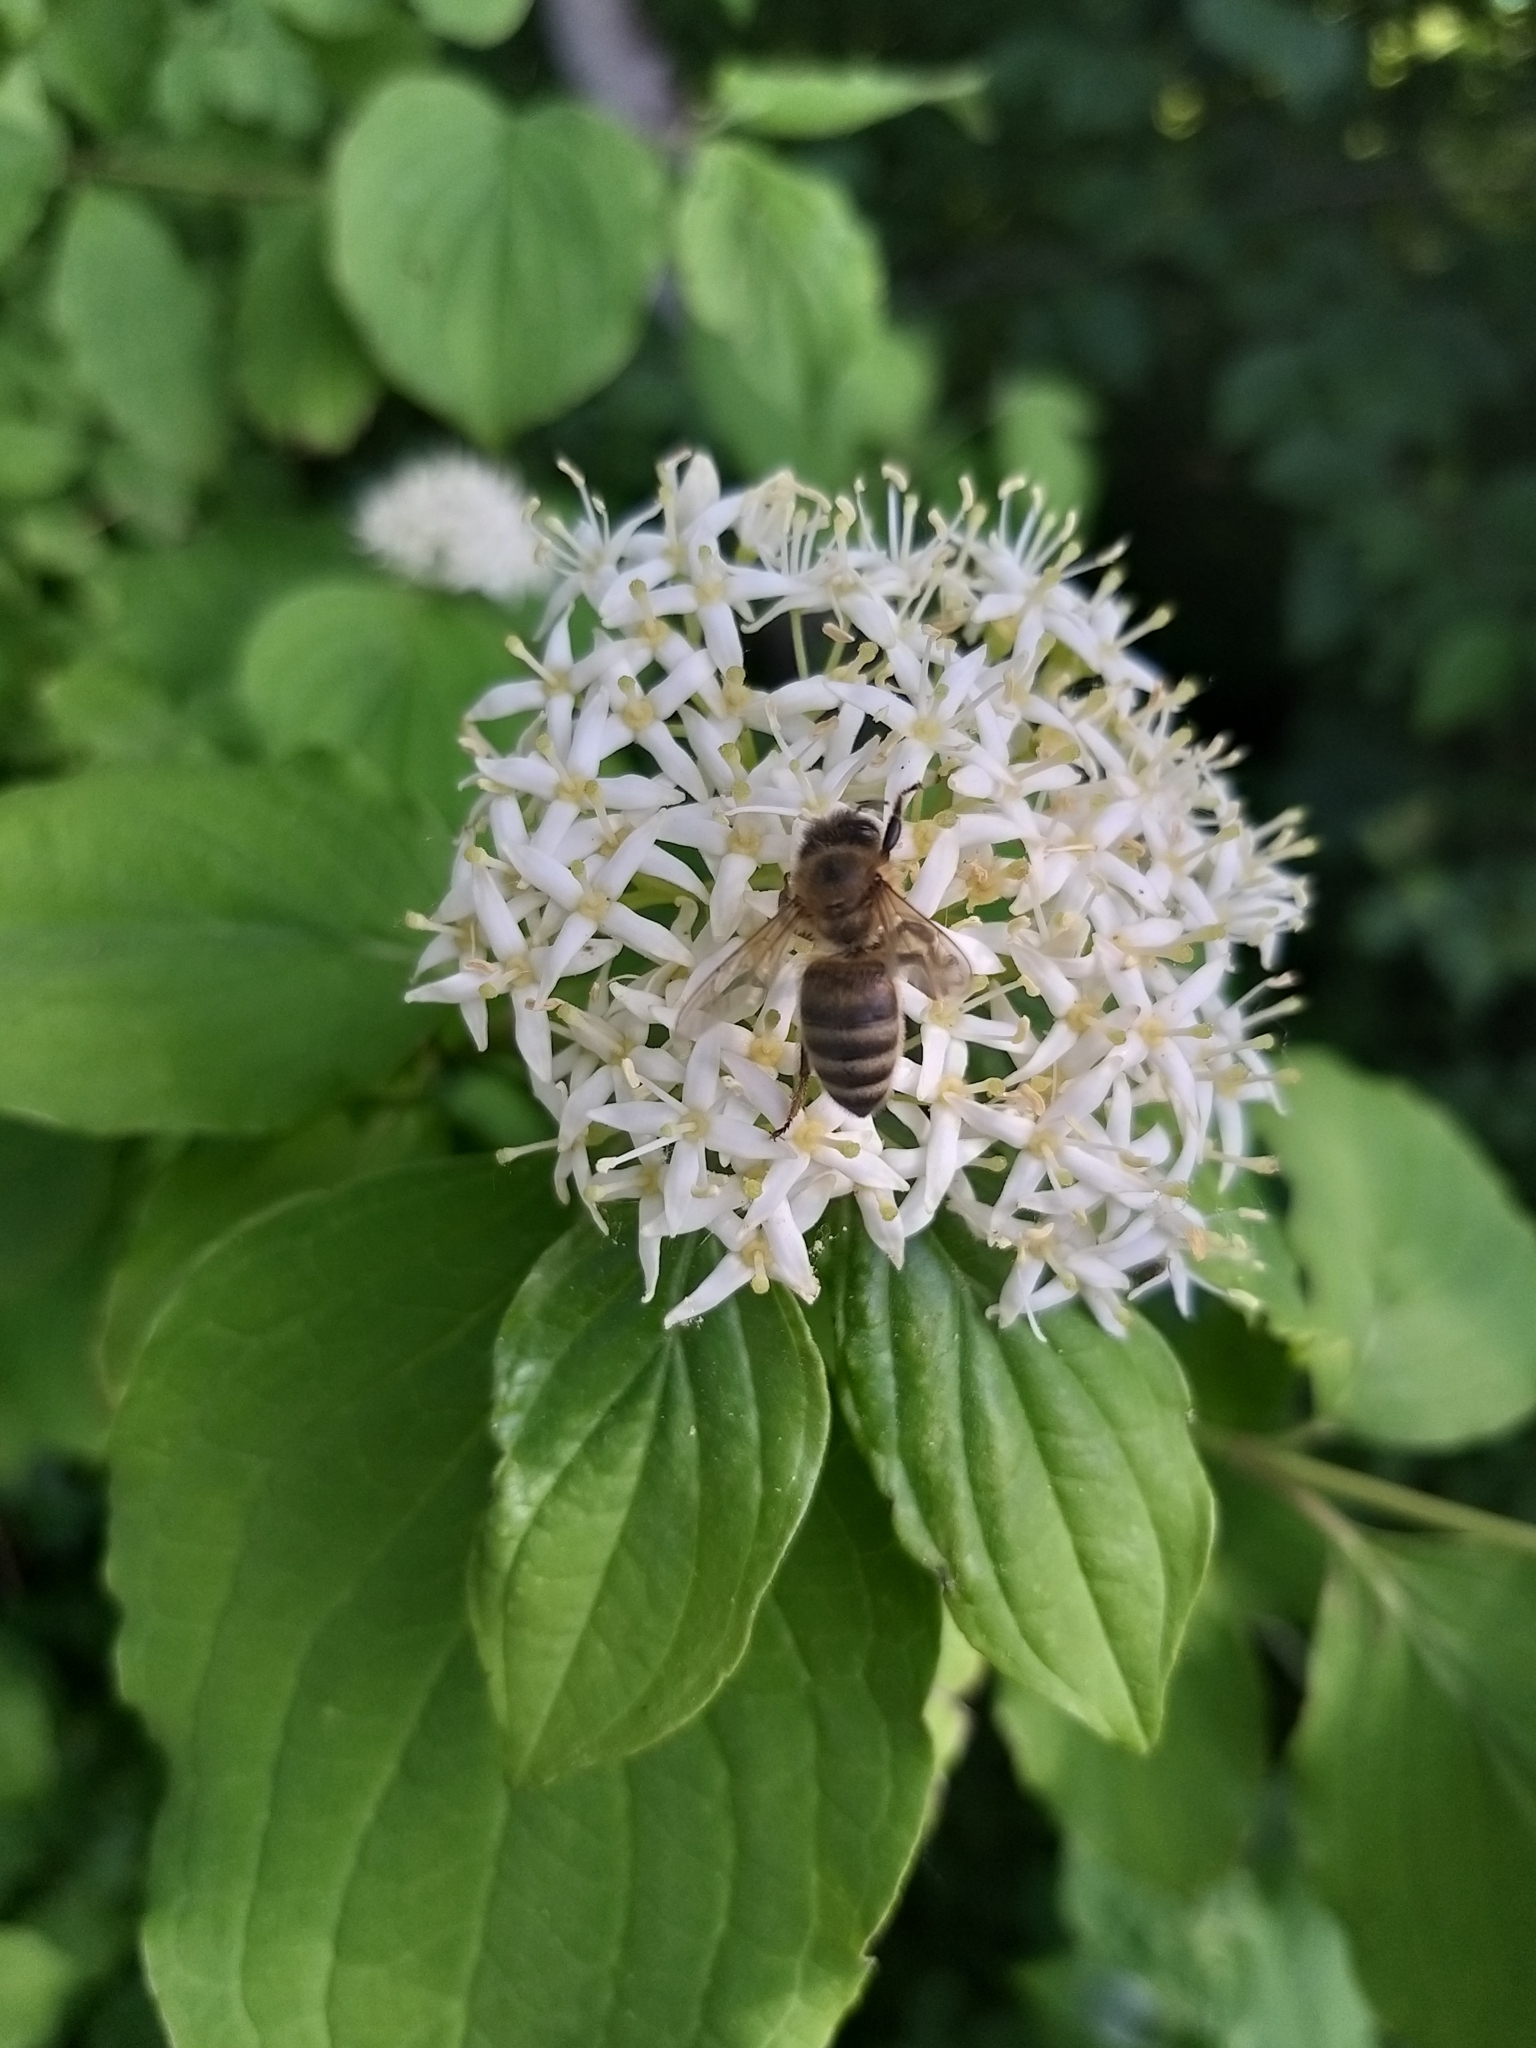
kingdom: Animalia
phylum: Arthropoda
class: Insecta
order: Hymenoptera
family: Apidae
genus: Apis
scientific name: Apis mellifera
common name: Honey bee
